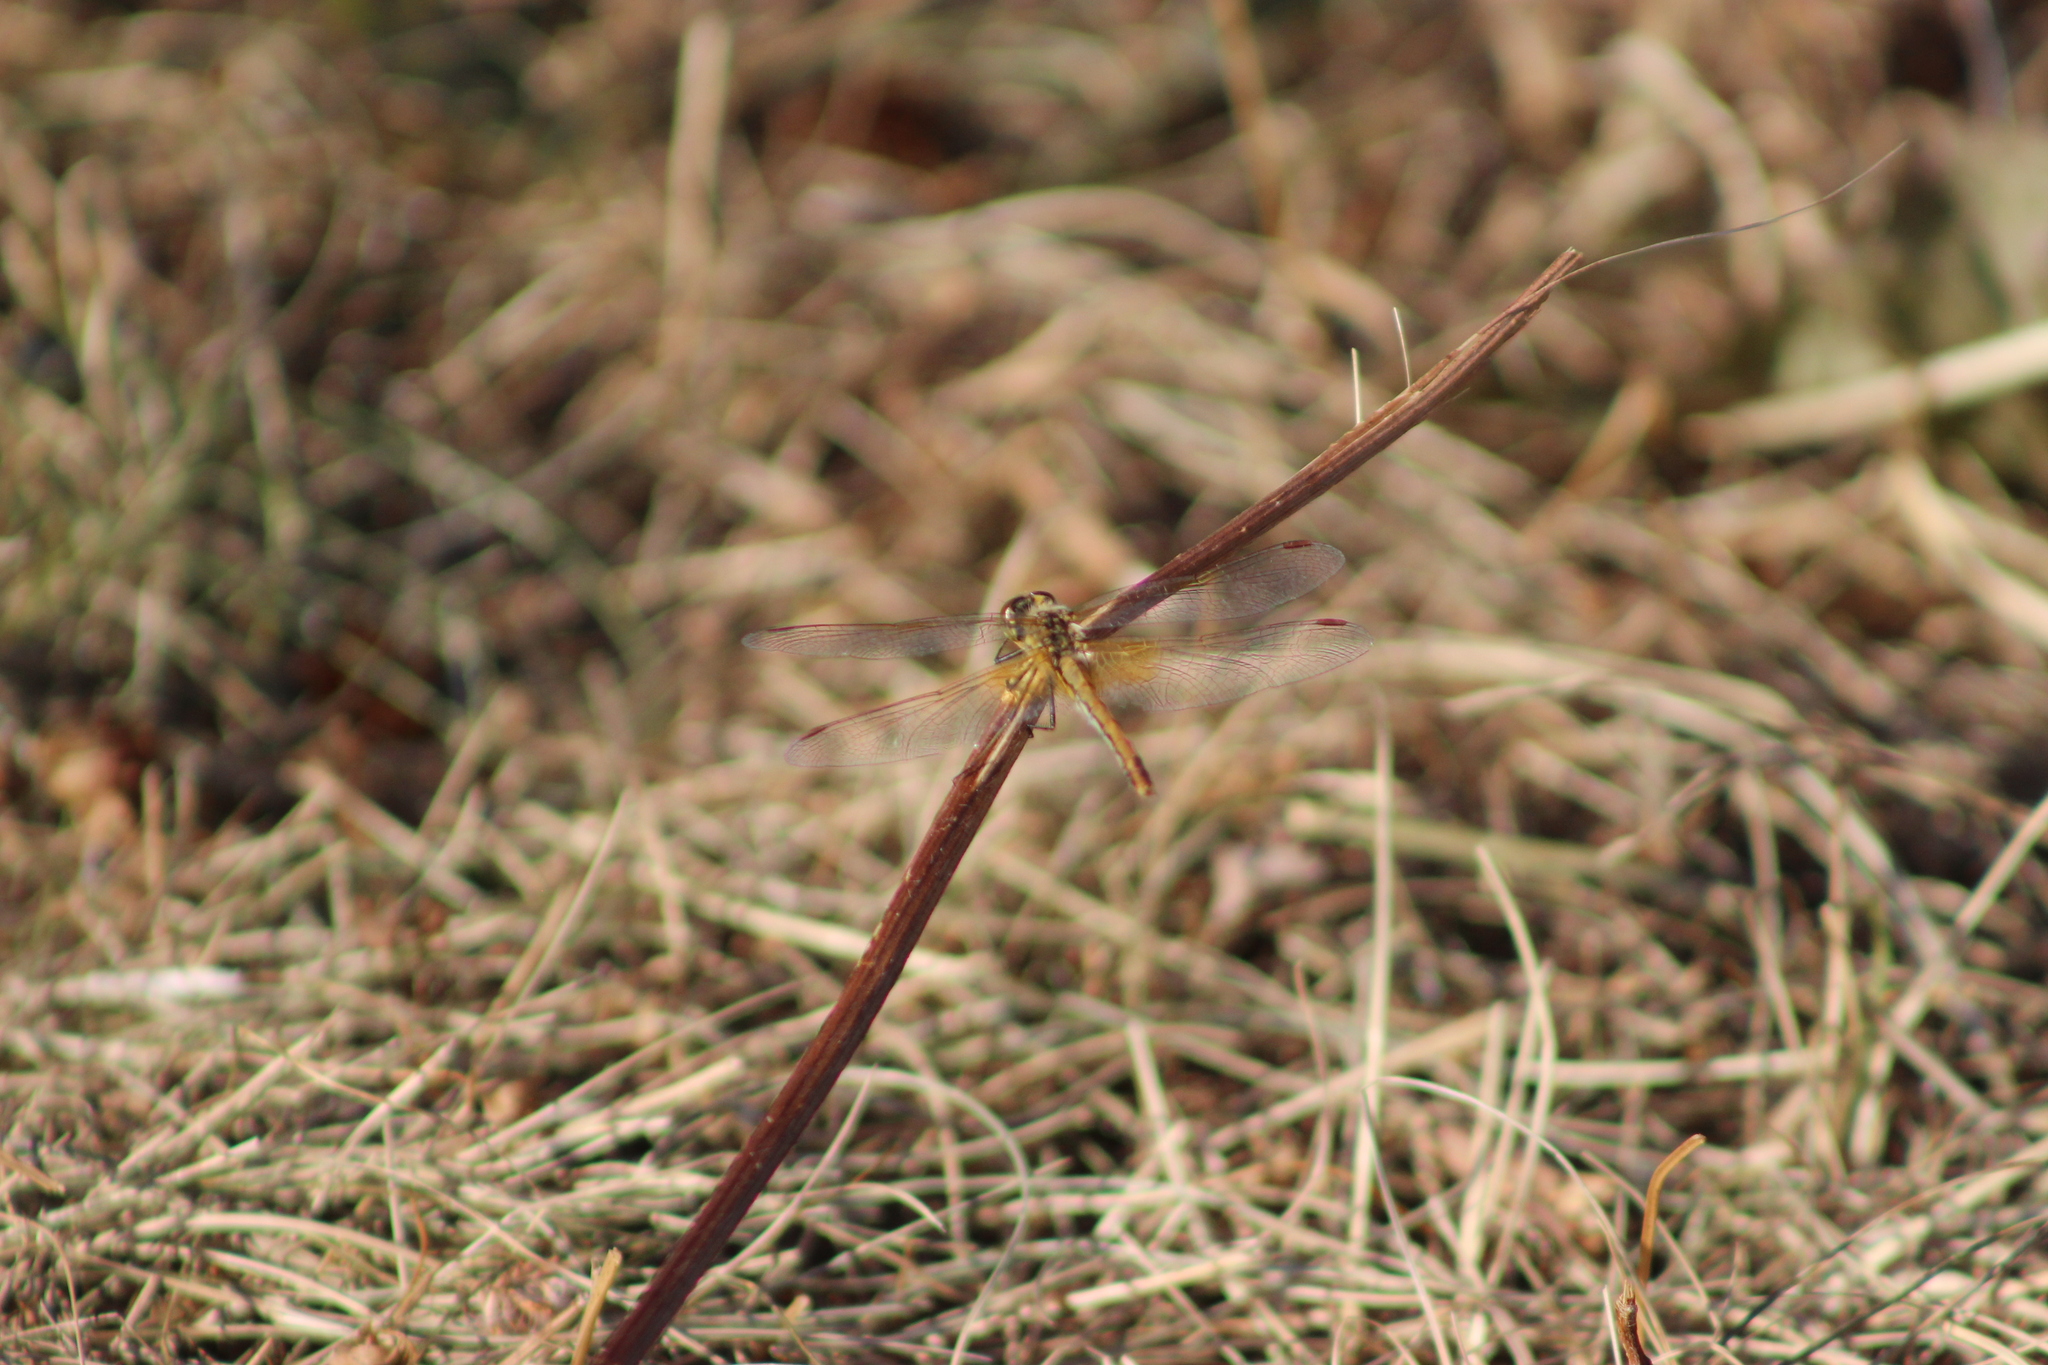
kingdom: Animalia
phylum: Arthropoda
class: Insecta
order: Odonata
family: Libellulidae
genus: Sympetrum
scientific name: Sympetrum flaveolum
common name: Yellow-winged darter
